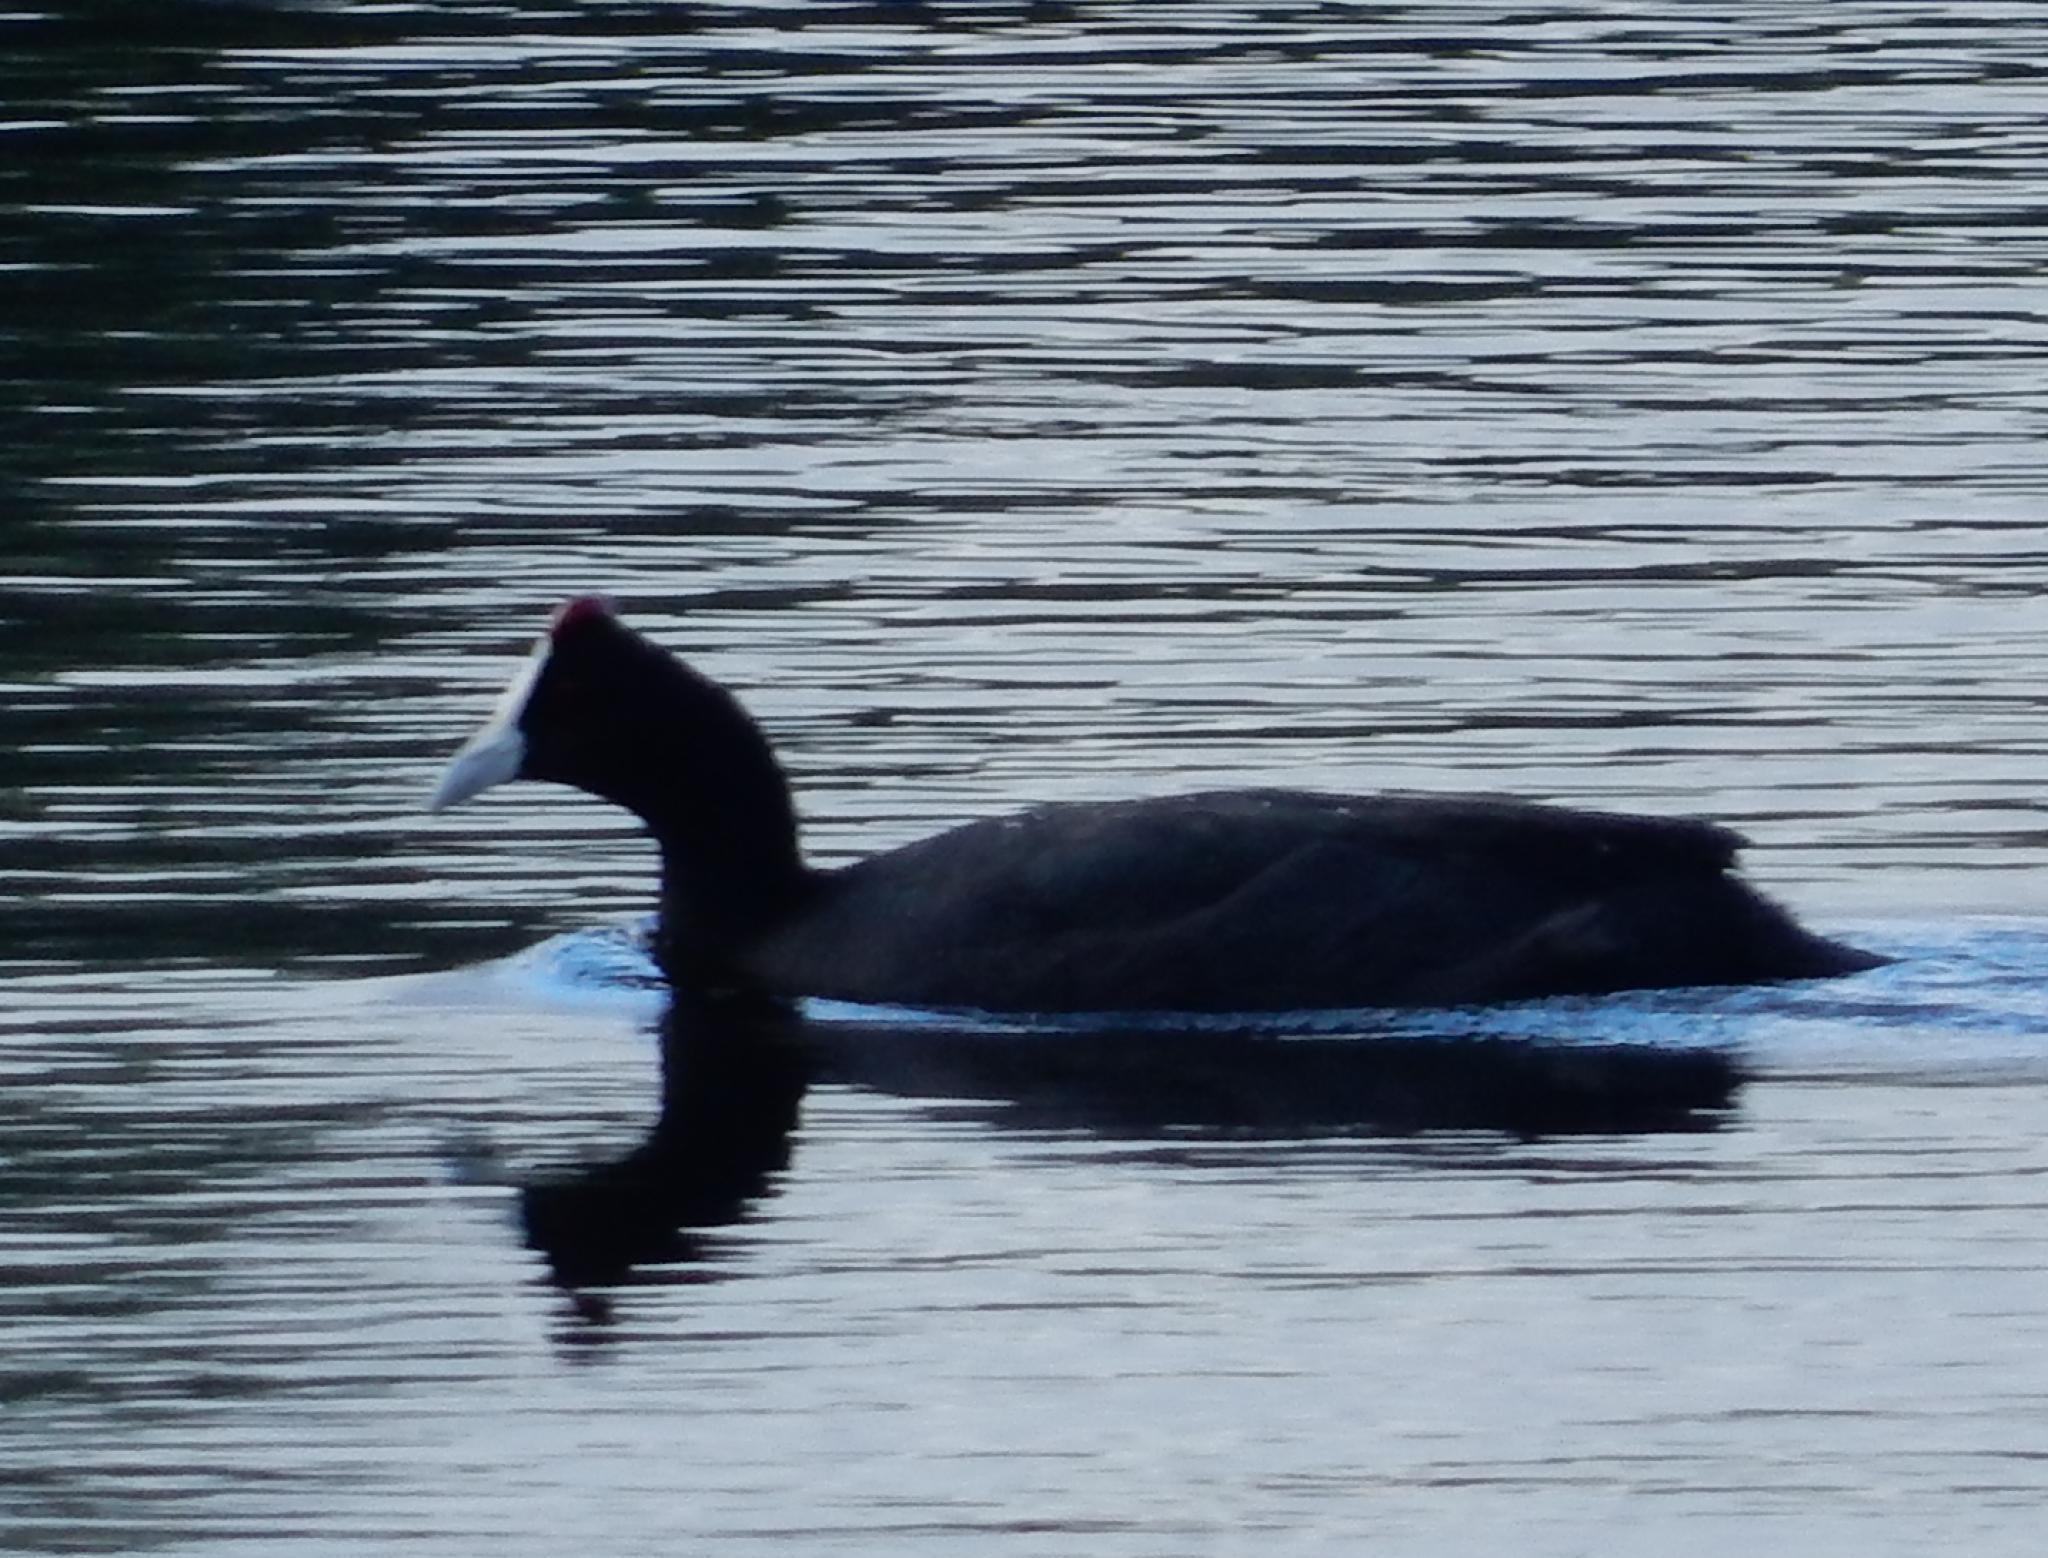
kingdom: Animalia
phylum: Chordata
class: Aves
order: Gruiformes
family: Rallidae
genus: Fulica
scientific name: Fulica cristata
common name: Red-knobbed coot
